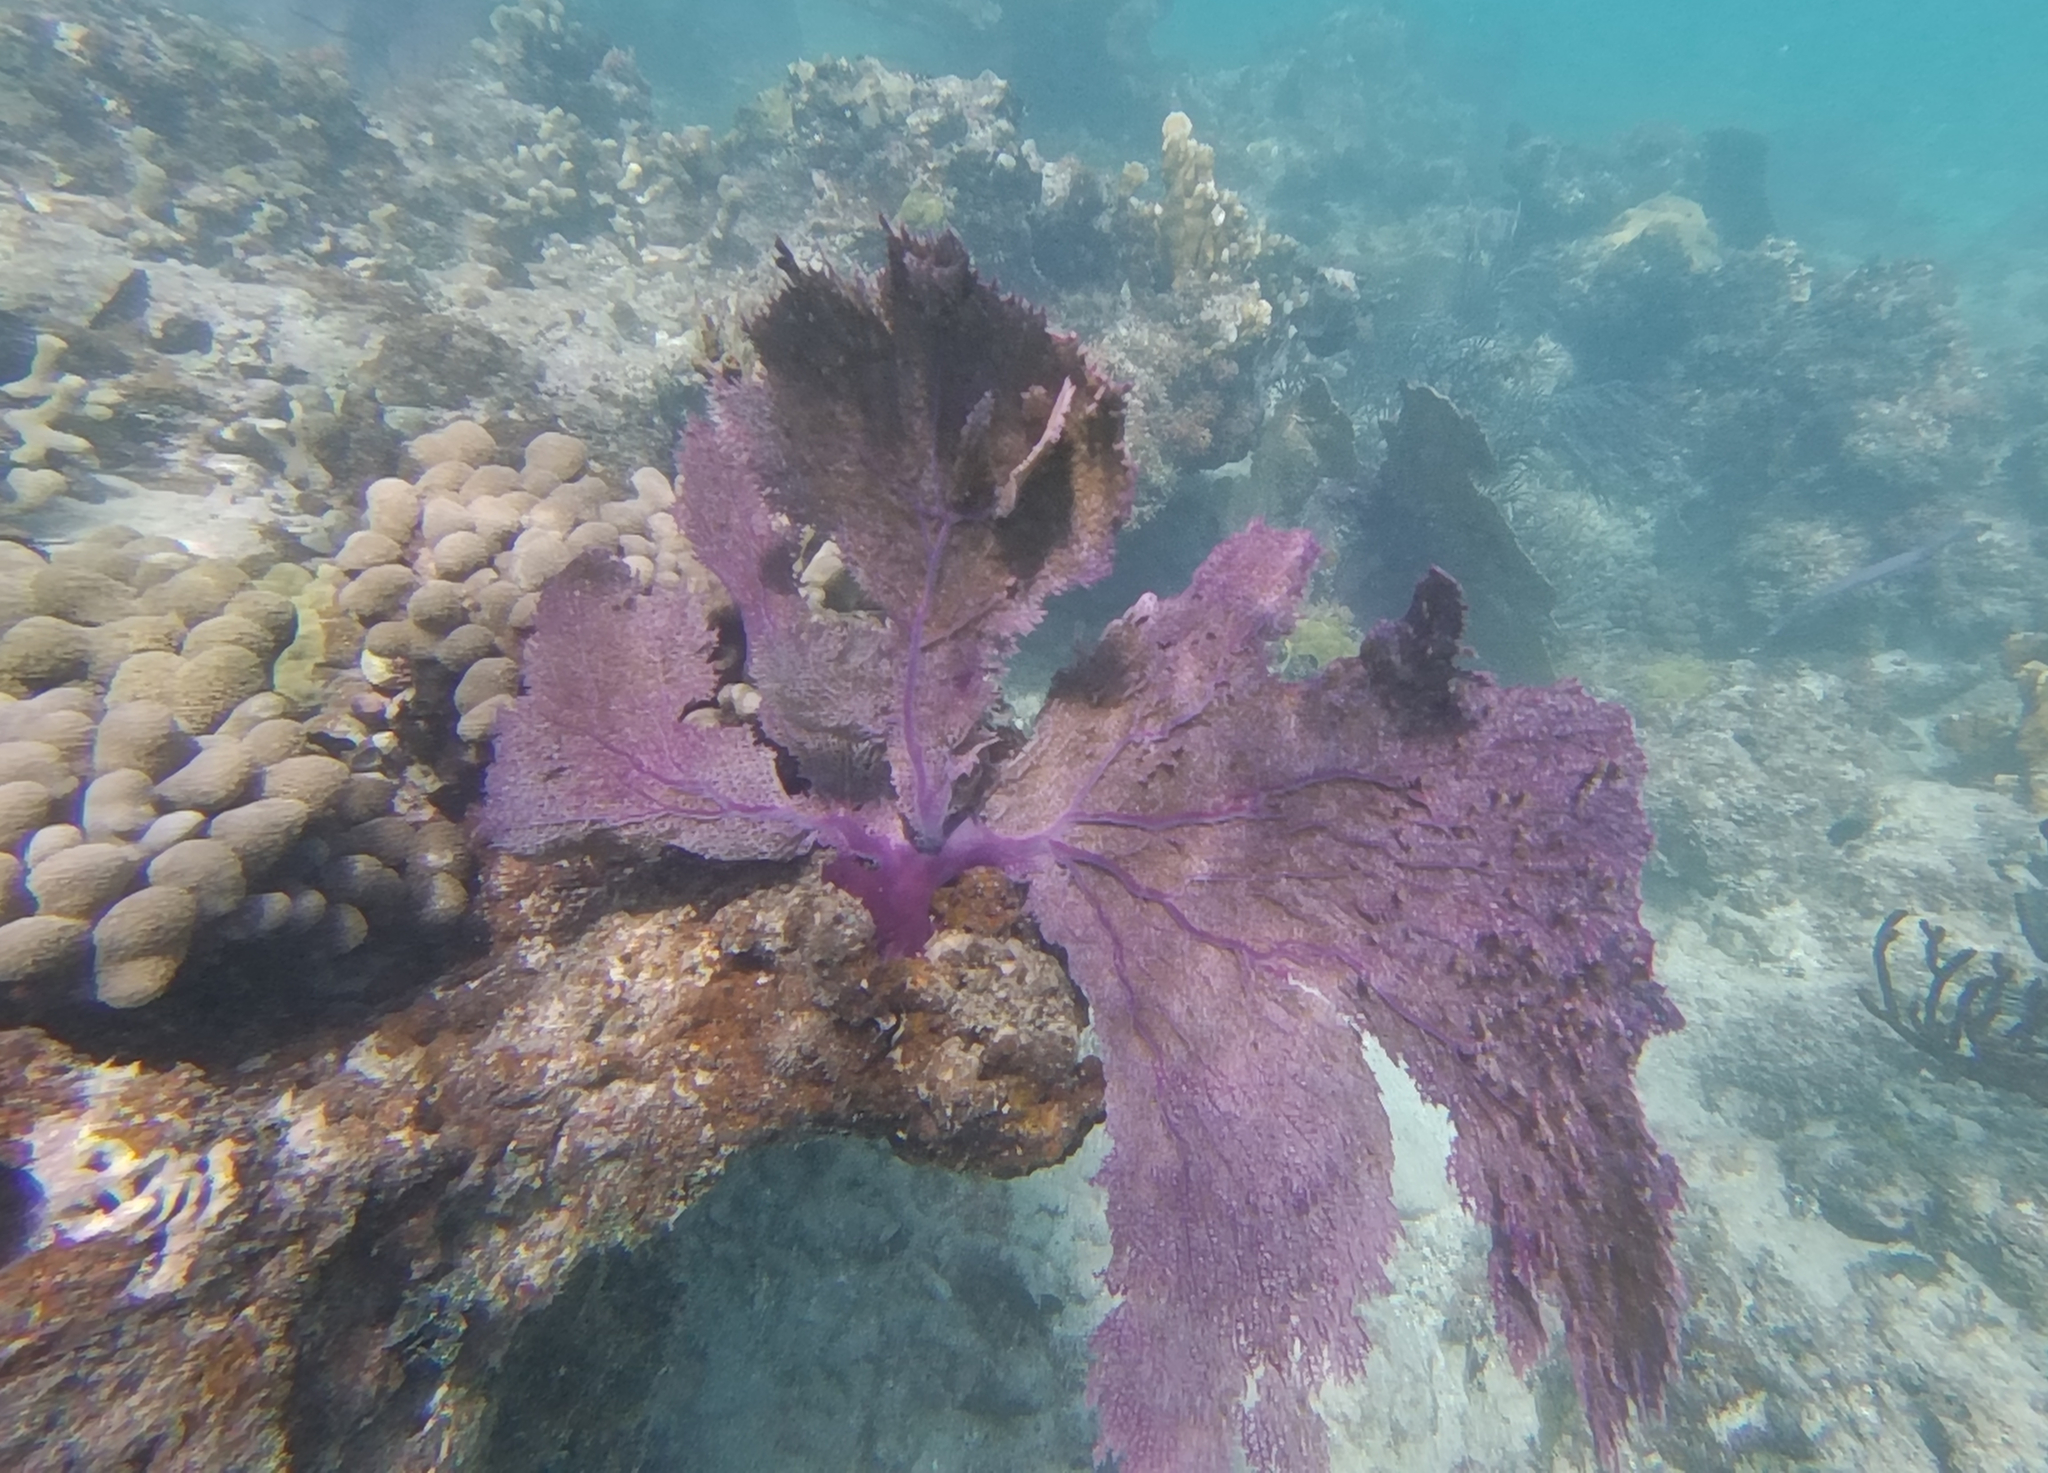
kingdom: Animalia
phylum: Cnidaria
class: Anthozoa
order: Malacalcyonacea
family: Gorgoniidae
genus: Gorgonia
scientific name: Gorgonia ventalina
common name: Common sea fan
